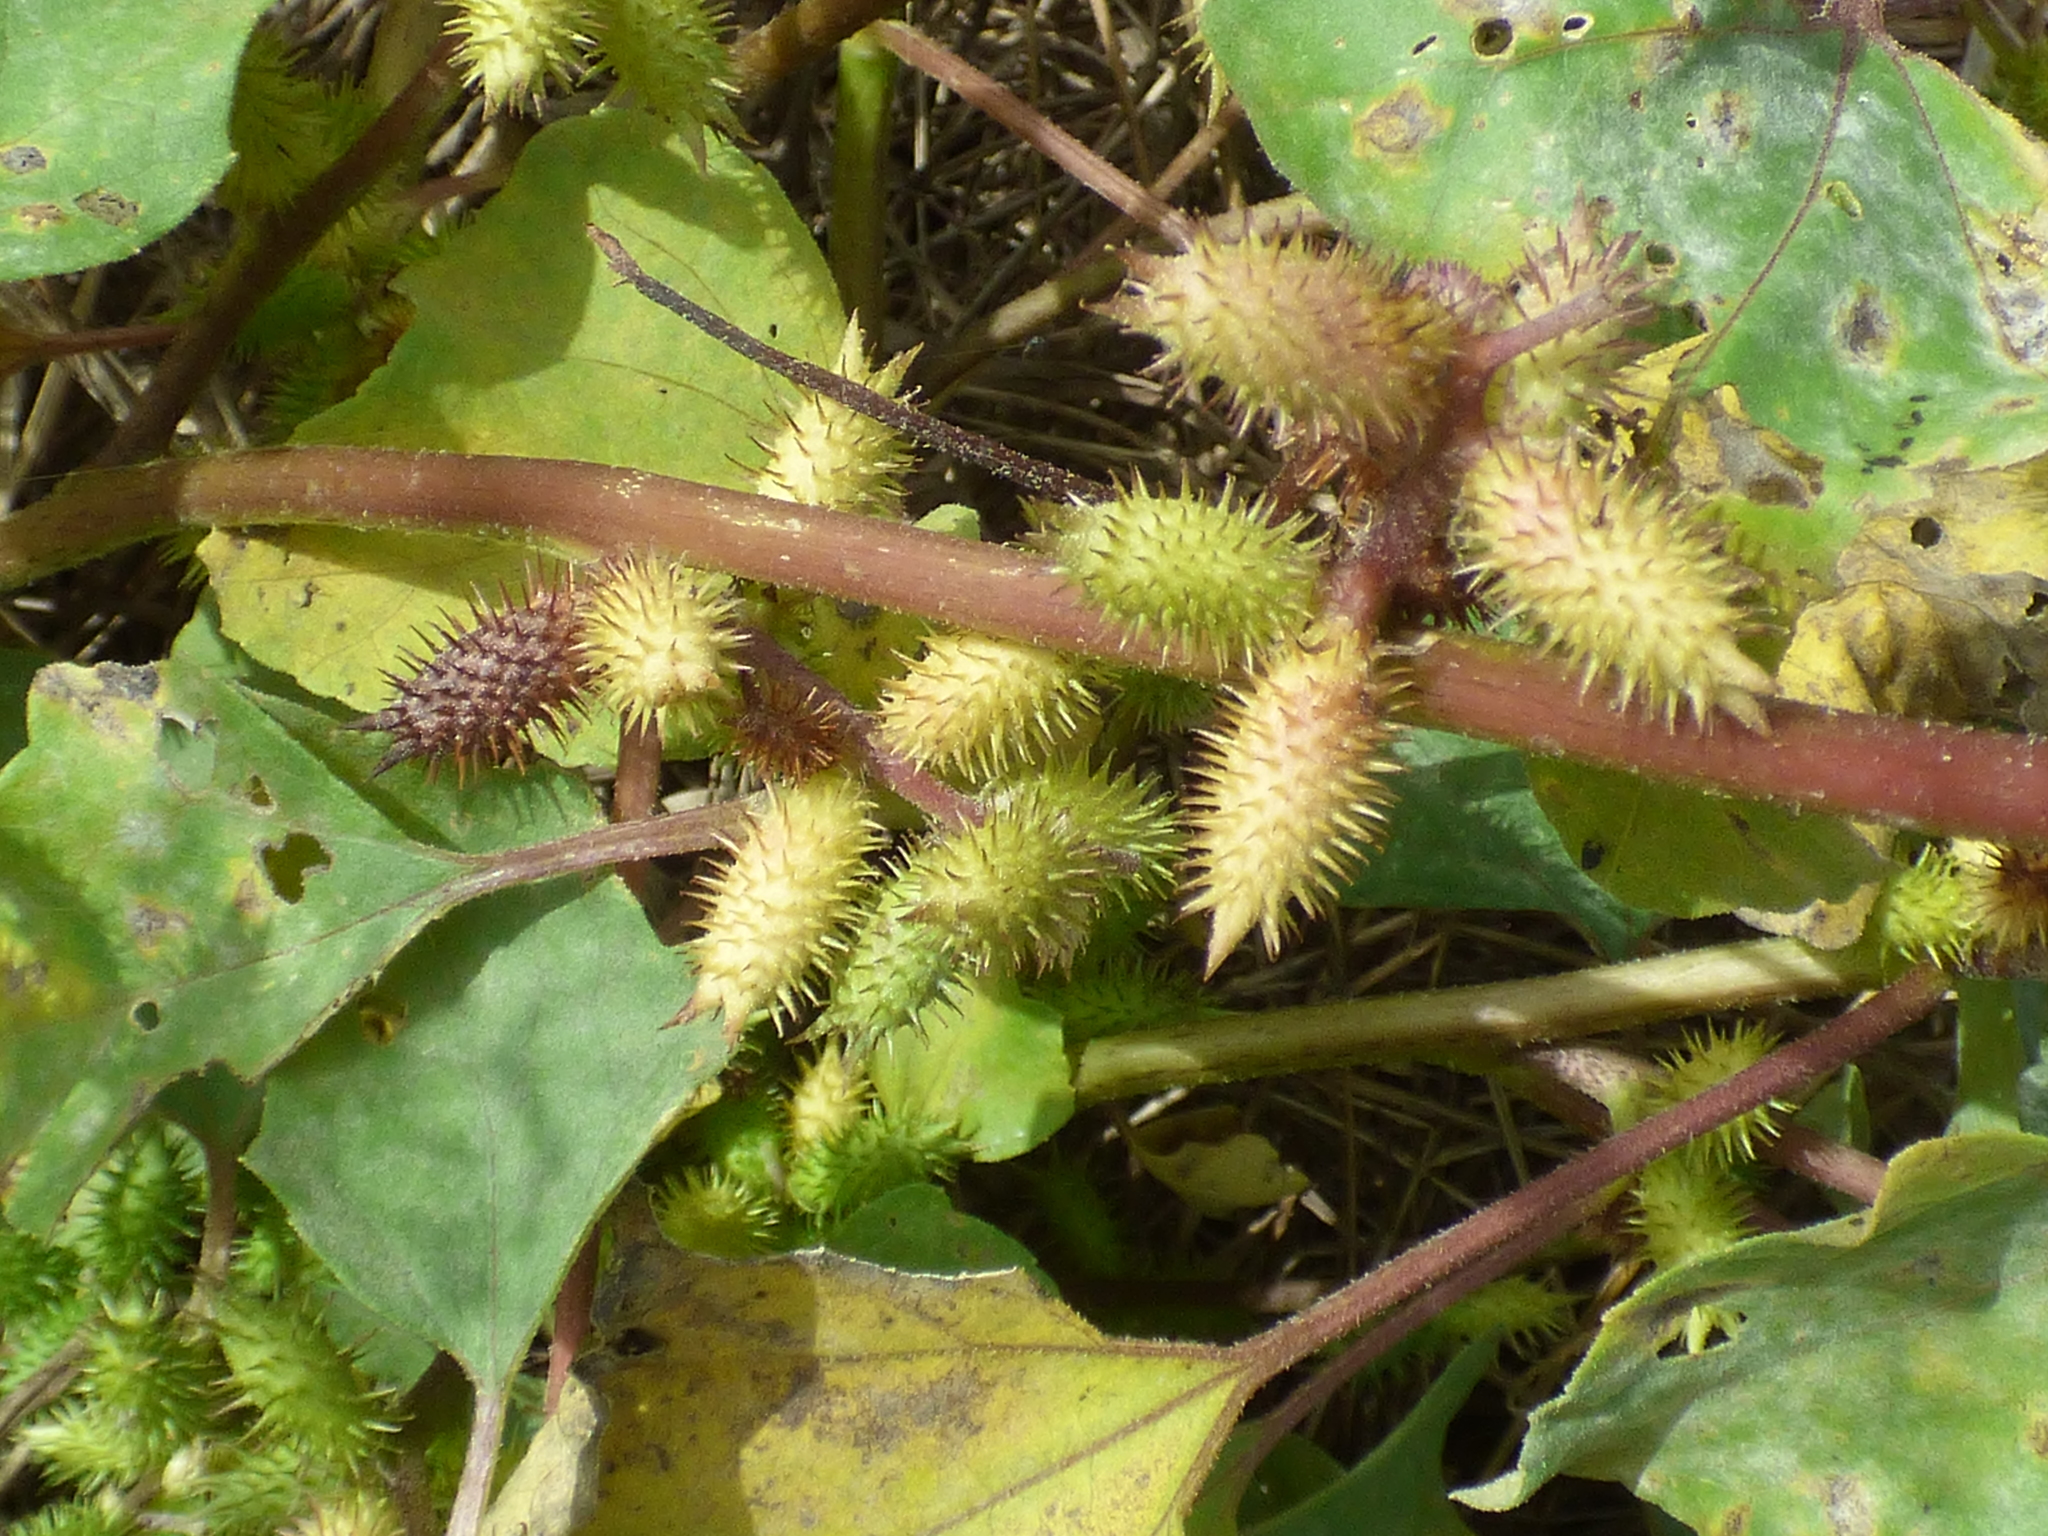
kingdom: Plantae
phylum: Tracheophyta
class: Magnoliopsida
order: Asterales
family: Asteraceae
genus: Xanthium
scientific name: Xanthium strumarium
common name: Rough cocklebur
